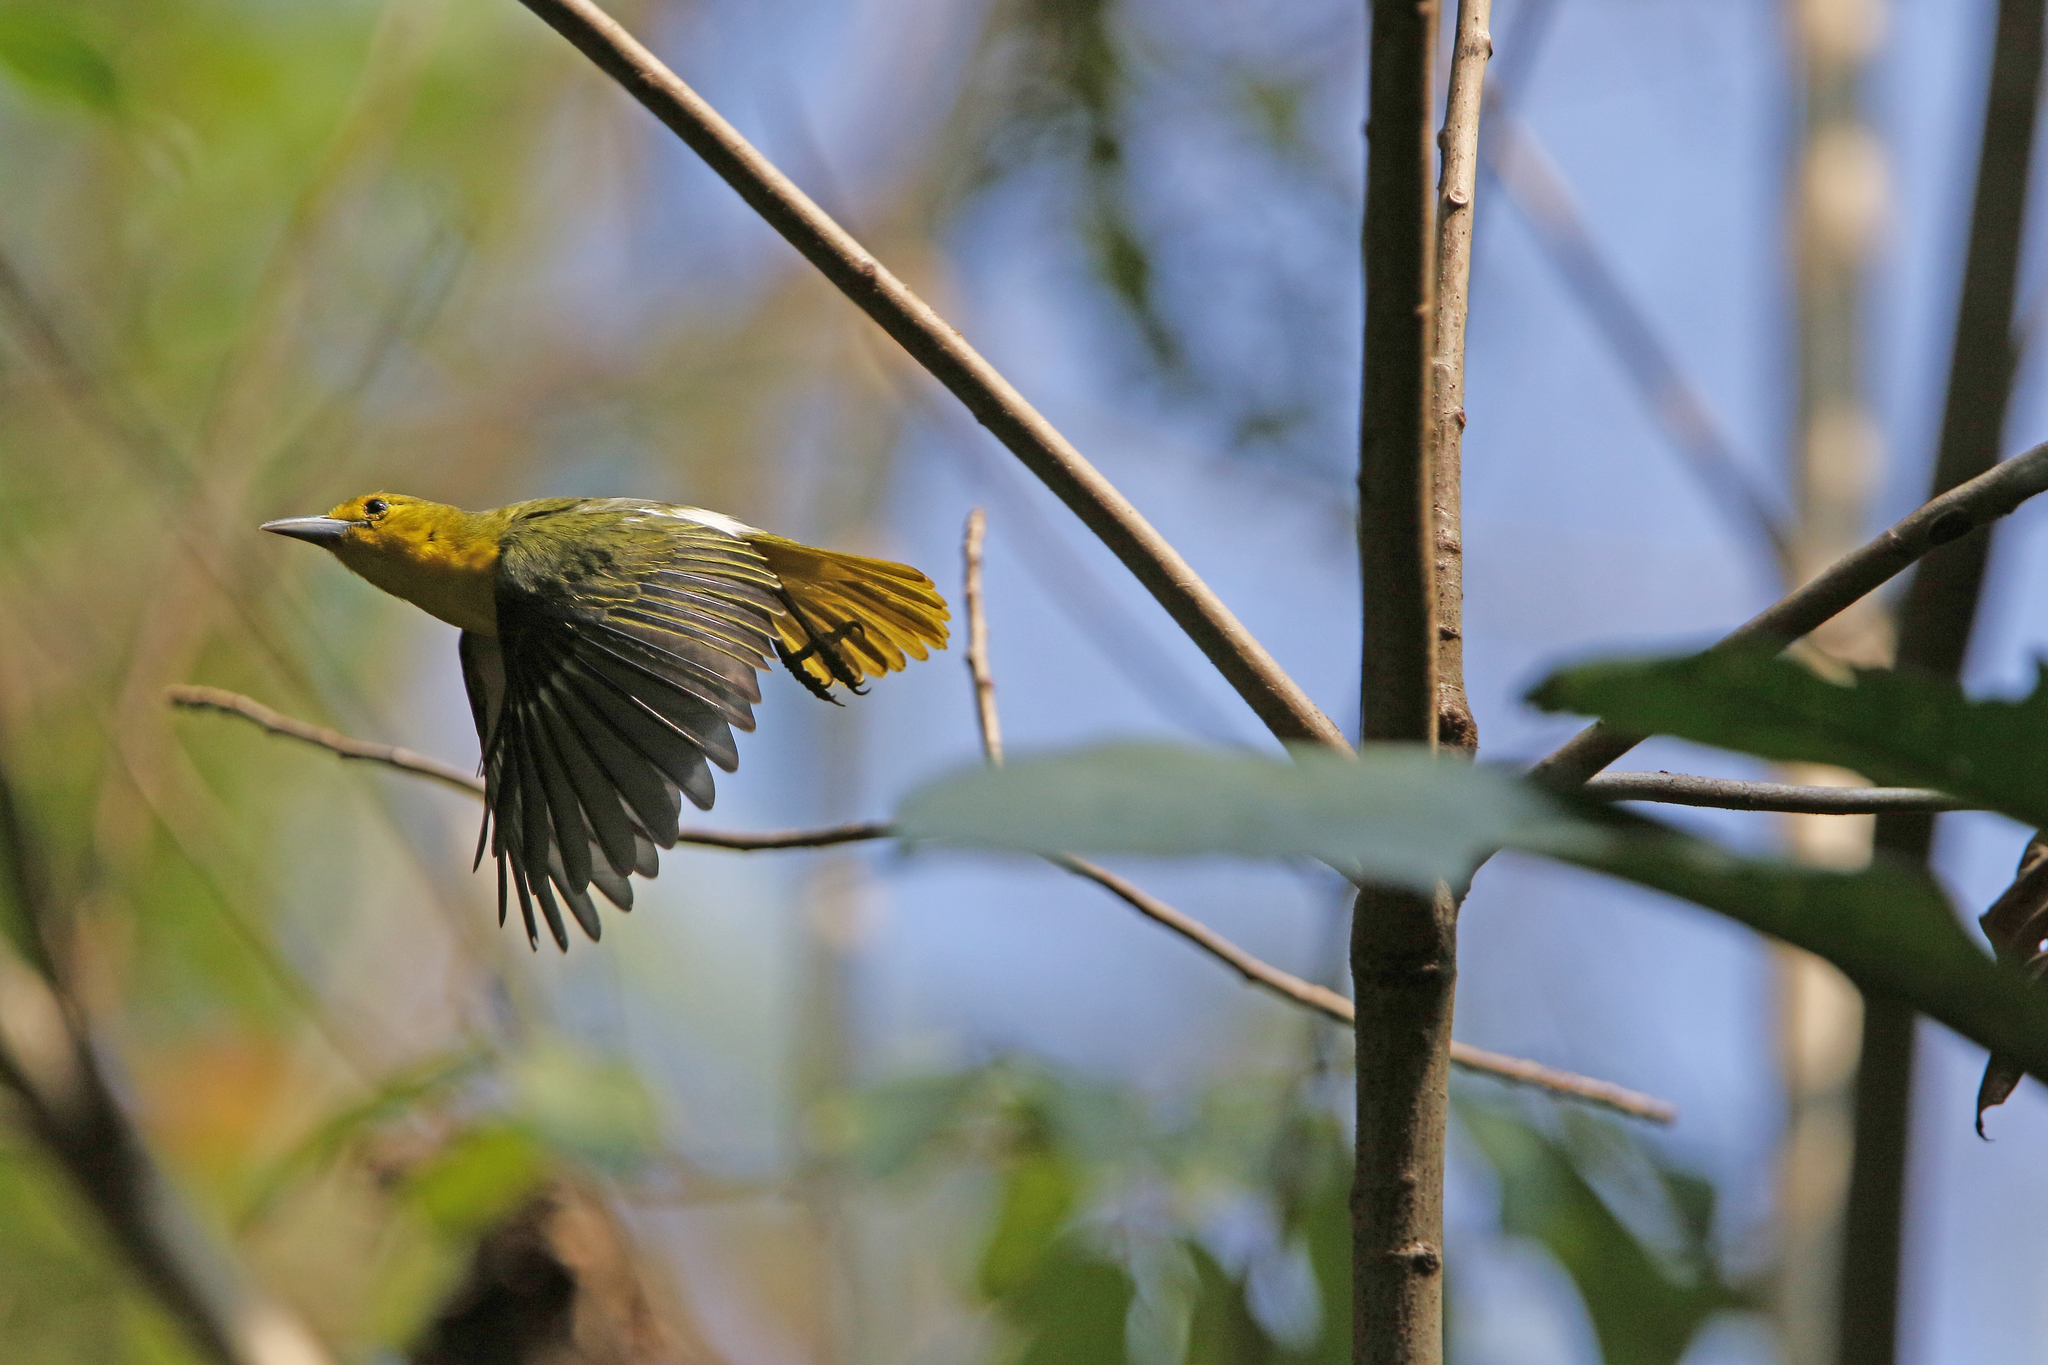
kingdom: Animalia
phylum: Chordata
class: Aves
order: Passeriformes
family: Aegithinidae
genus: Aegithina
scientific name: Aegithina lafresnayei
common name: Great iora
